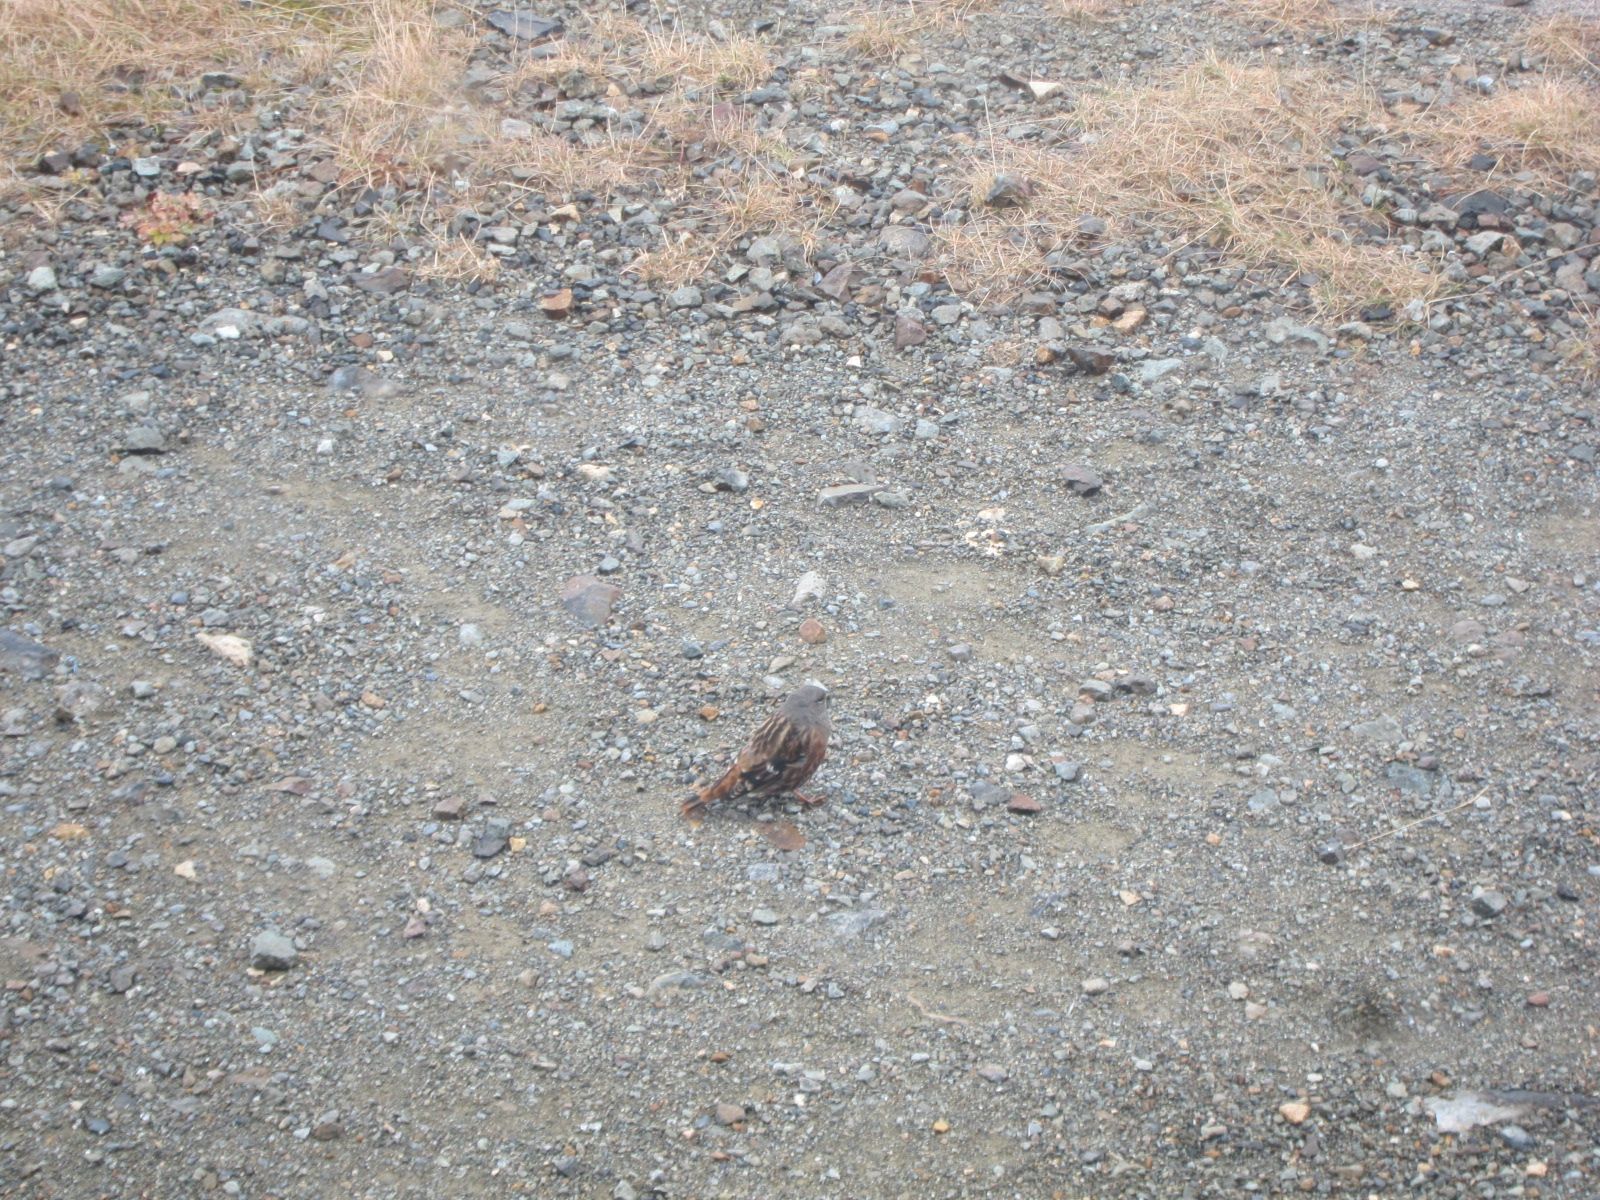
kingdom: Animalia
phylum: Chordata
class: Aves
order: Passeriformes
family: Prunellidae
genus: Prunella
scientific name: Prunella collaris
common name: Alpine accentor
